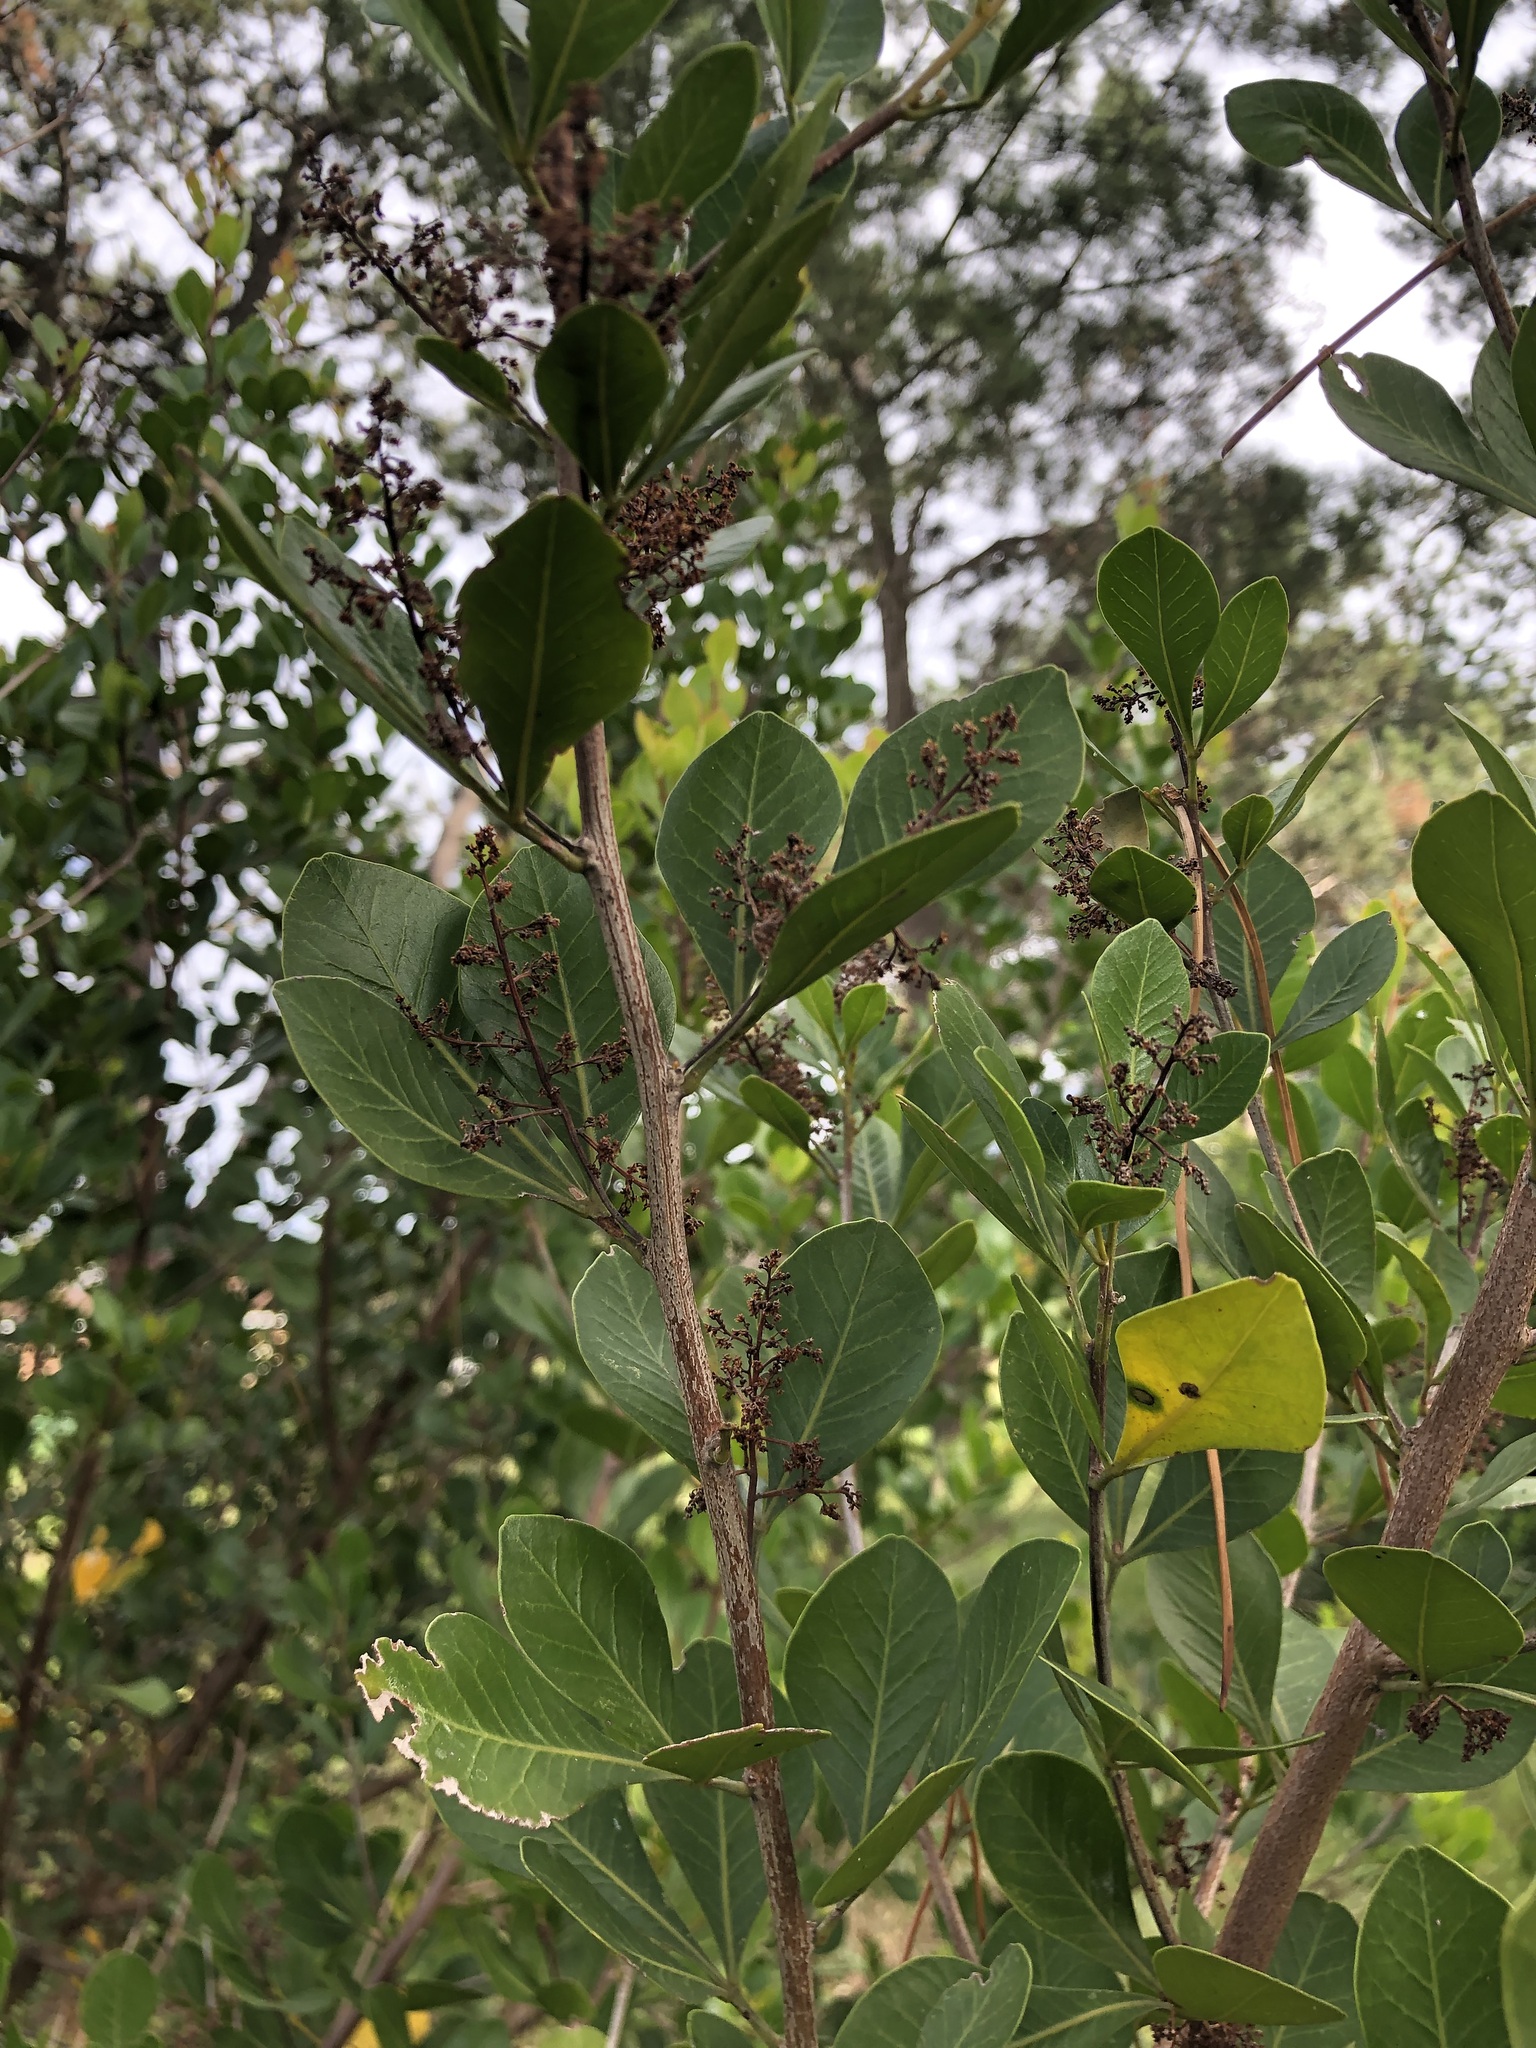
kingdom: Plantae
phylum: Tracheophyta
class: Magnoliopsida
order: Sapindales
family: Anacardiaceae
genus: Searsia
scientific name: Searsia lucida
